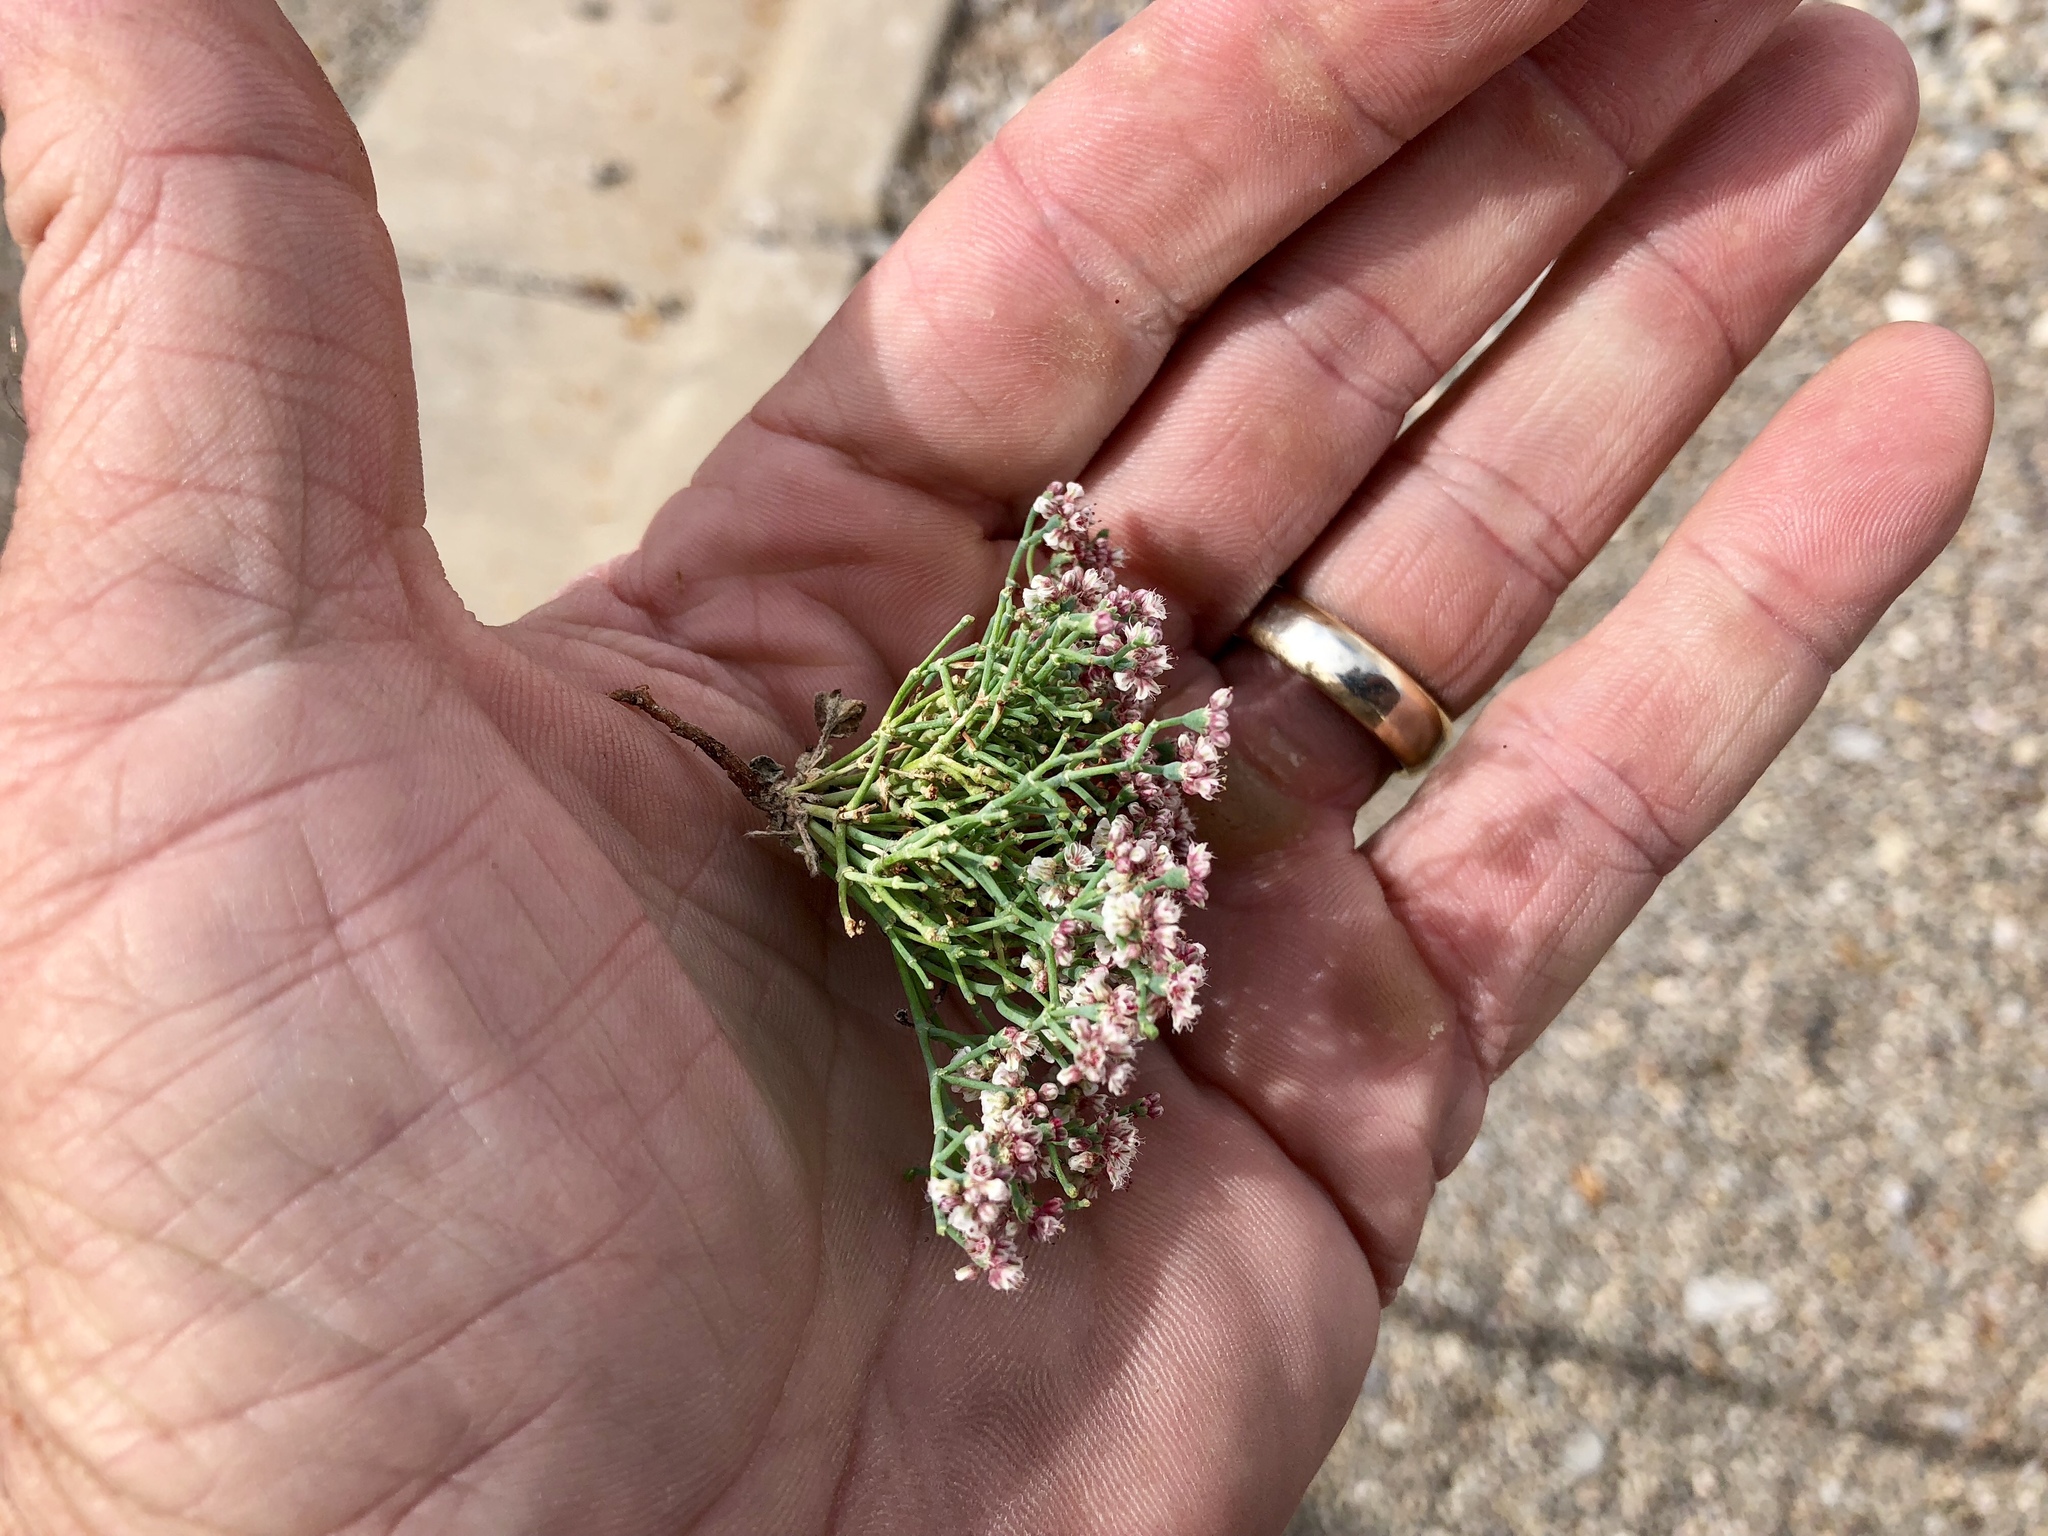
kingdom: Plantae
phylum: Tracheophyta
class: Magnoliopsida
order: Caryophyllales
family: Polygonaceae
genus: Eriogonum
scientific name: Eriogonum rotundifolium
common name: Round-leaf wild buckwheat
